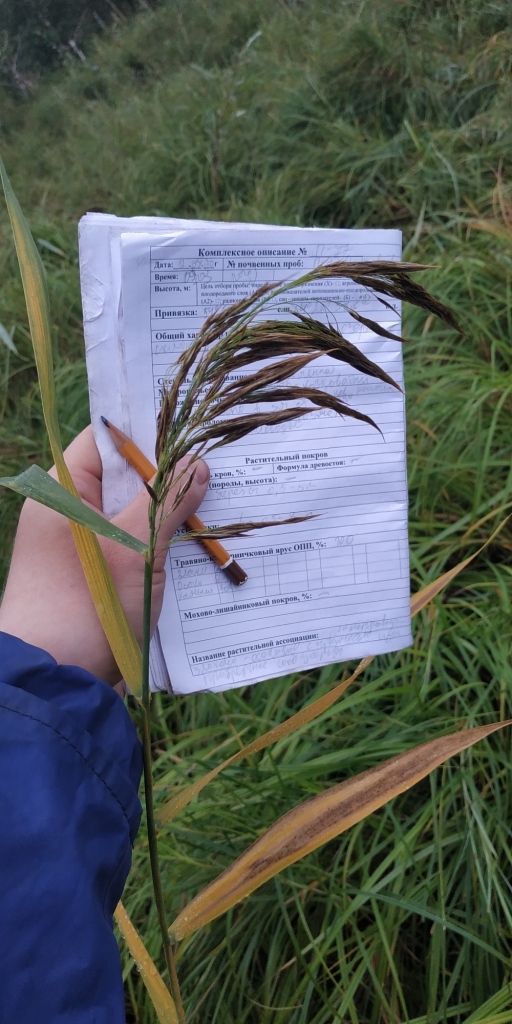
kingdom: Plantae
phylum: Tracheophyta
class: Liliopsida
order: Poales
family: Poaceae
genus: Phragmites
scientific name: Phragmites australis
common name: Common reed
